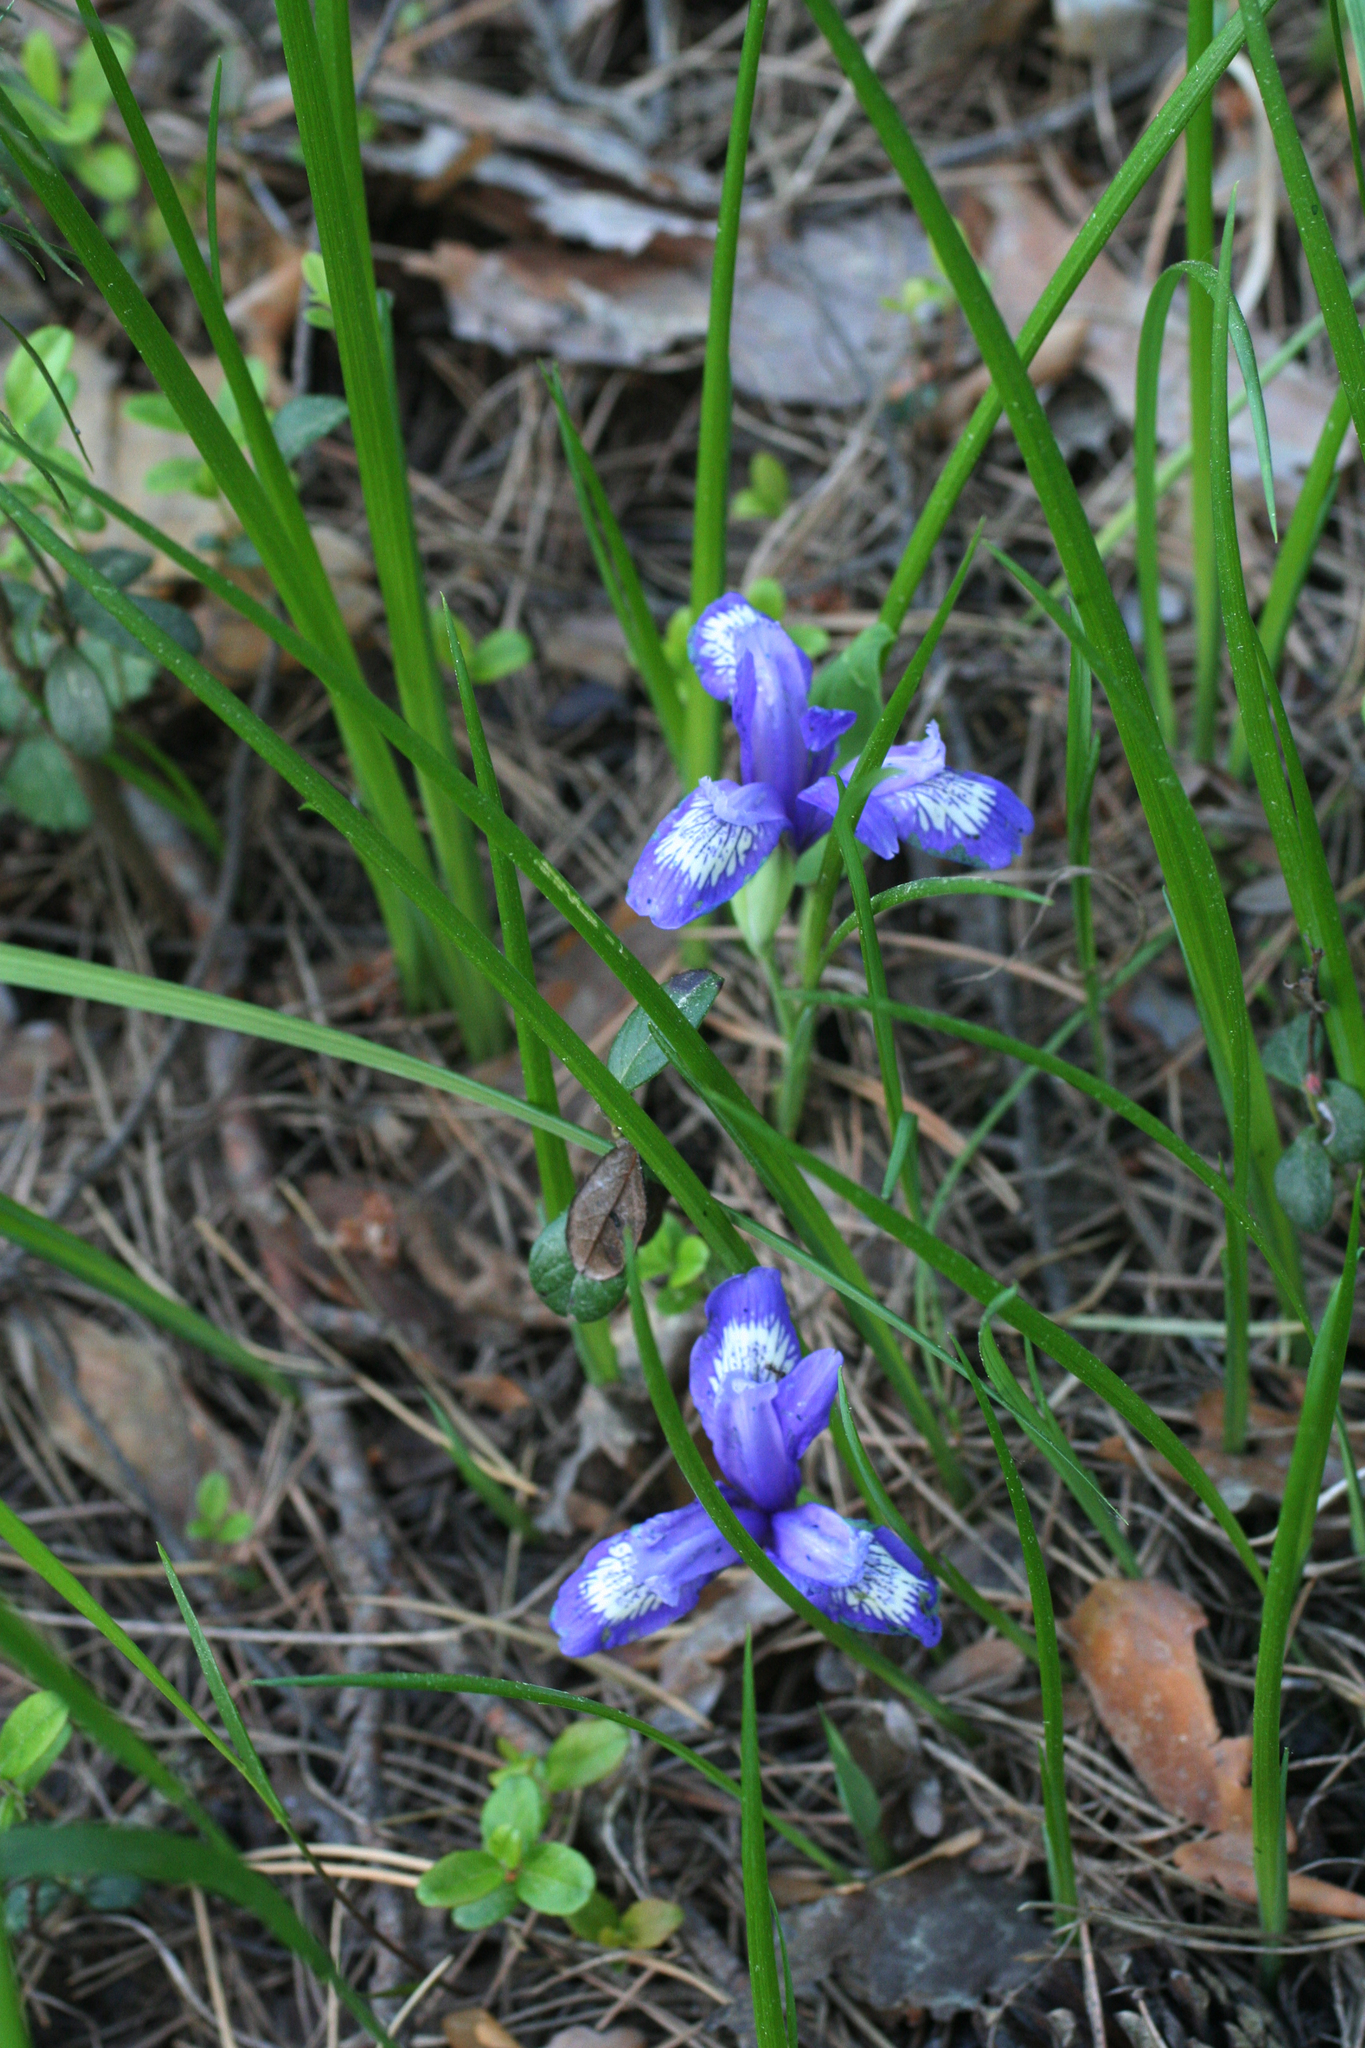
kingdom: Plantae
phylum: Tracheophyta
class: Liliopsida
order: Asparagales
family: Iridaceae
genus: Iris
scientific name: Iris ruthenica
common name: Purple-bract iris
